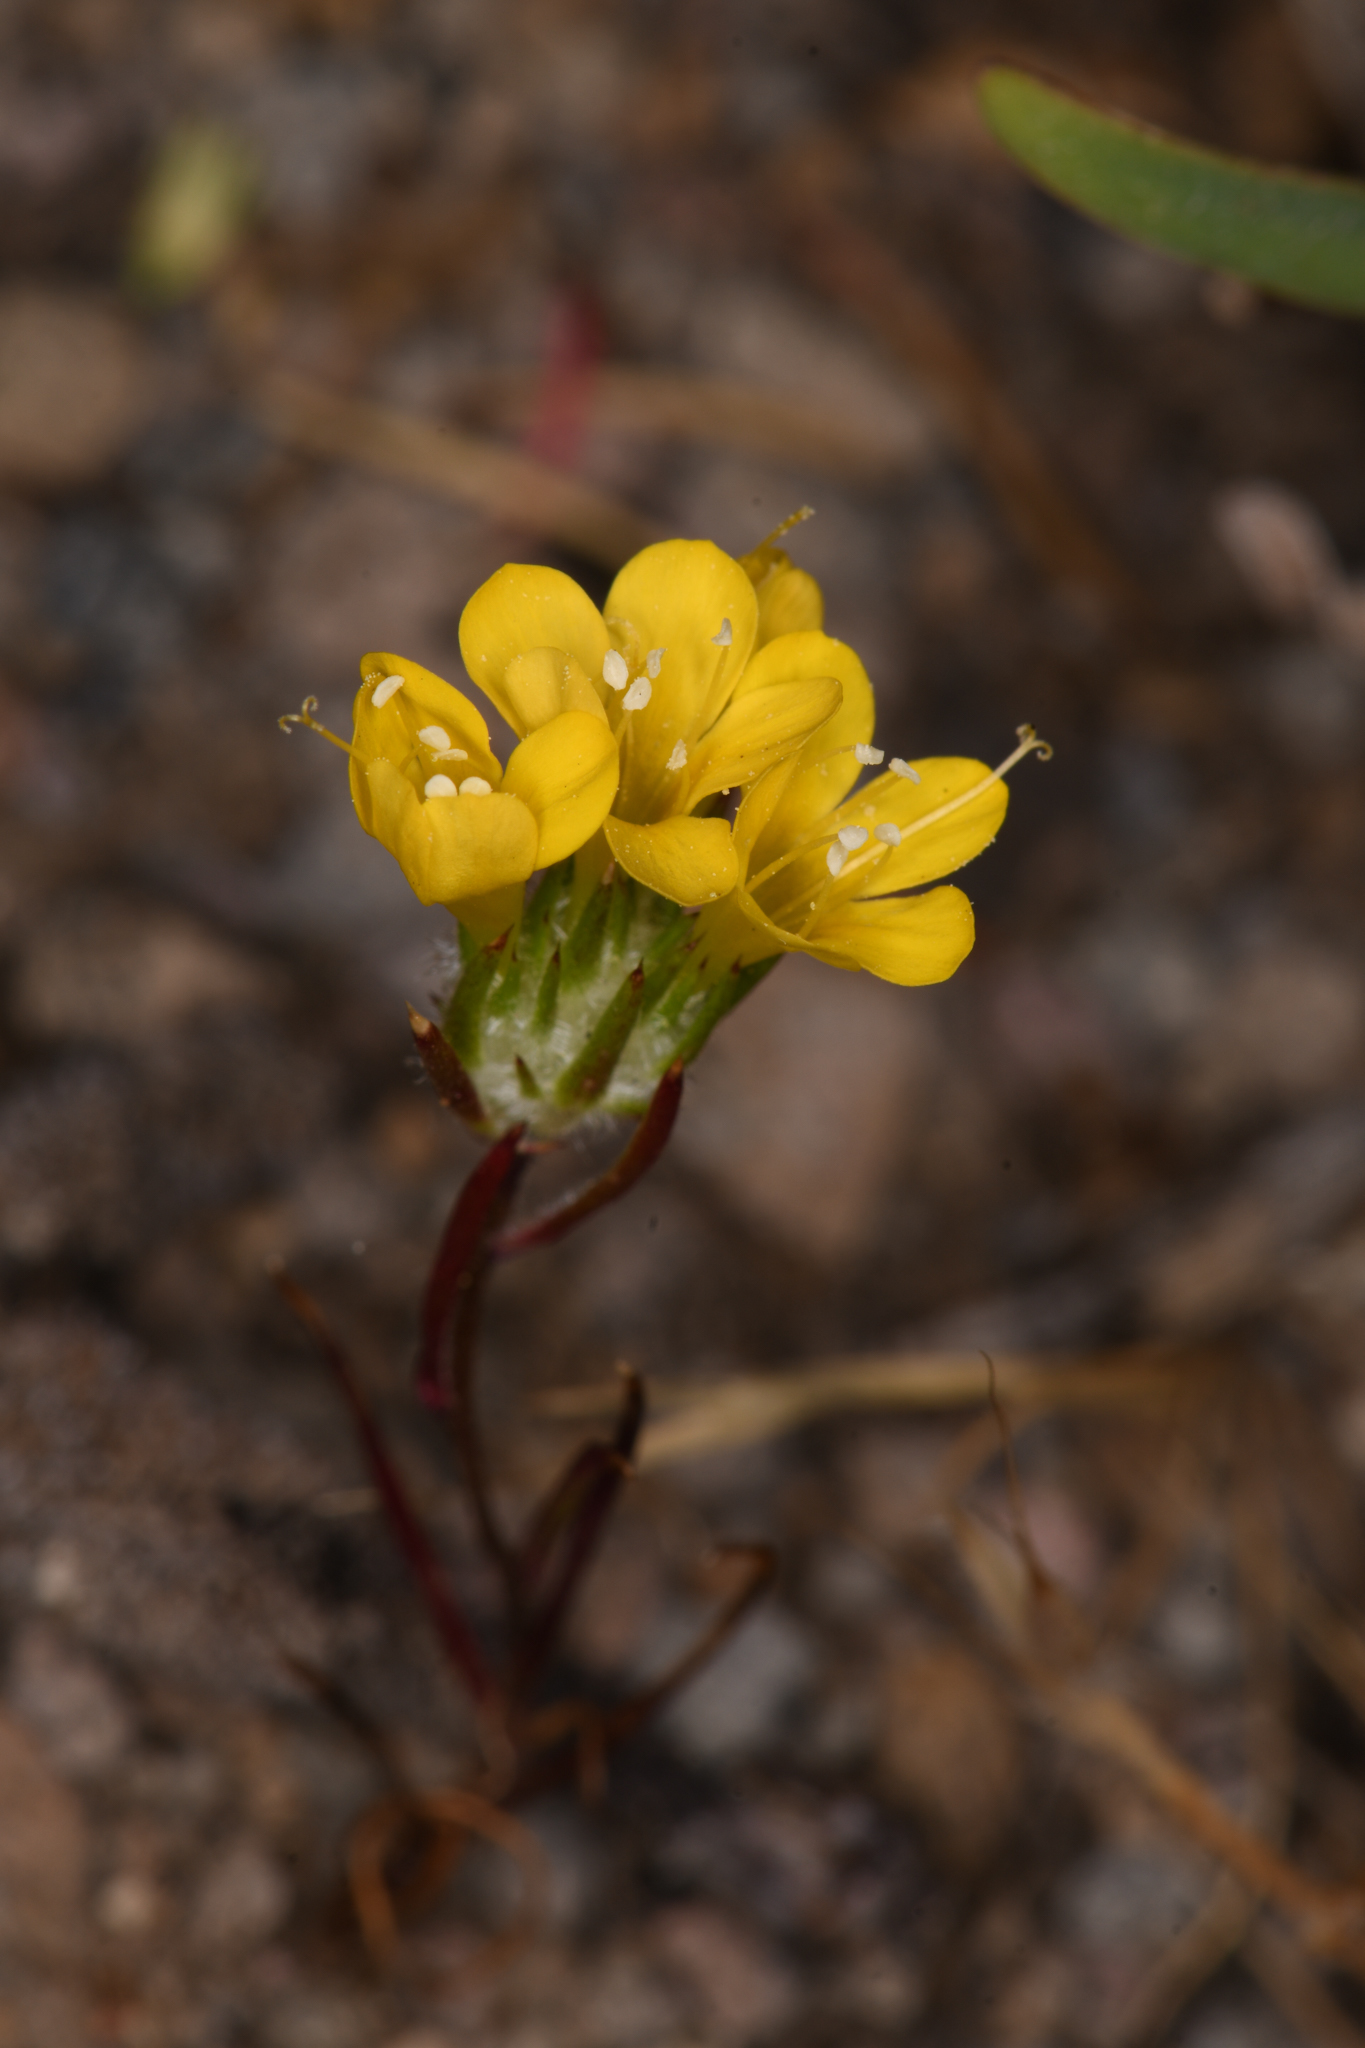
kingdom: Plantae
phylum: Tracheophyta
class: Magnoliopsida
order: Ericales
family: Polemoniaceae
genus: Navarretia
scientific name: Navarretia prolifera
